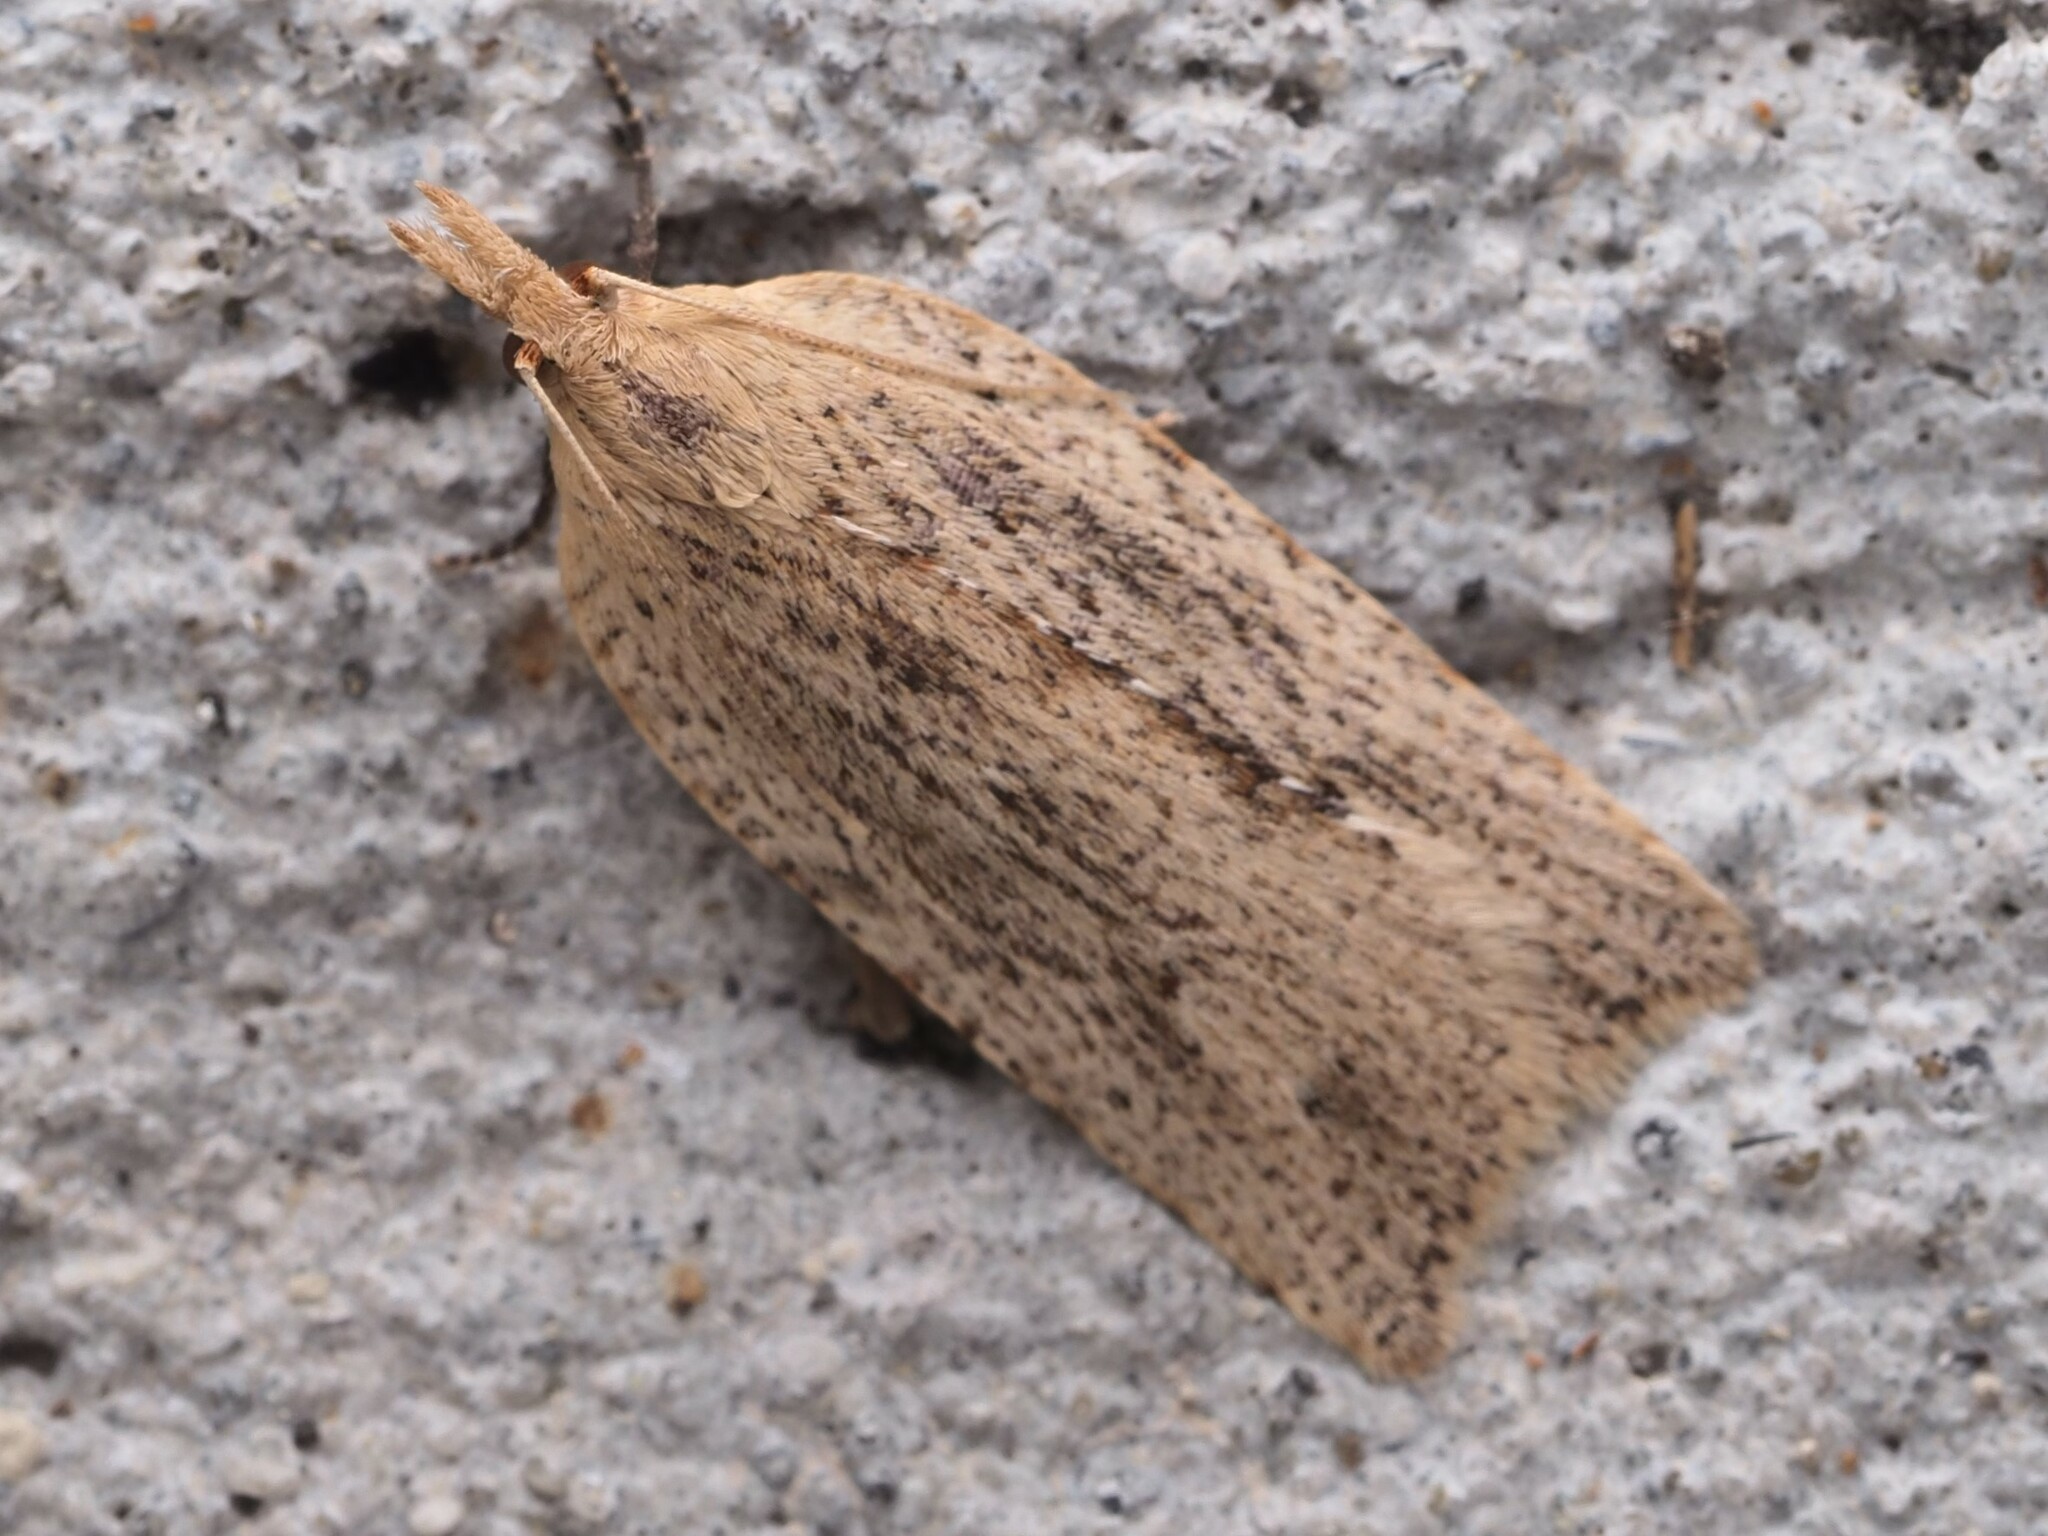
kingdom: Animalia
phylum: Arthropoda
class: Insecta
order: Lepidoptera
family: Tortricidae
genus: Planotortrix
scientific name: Planotortrix notophaea
